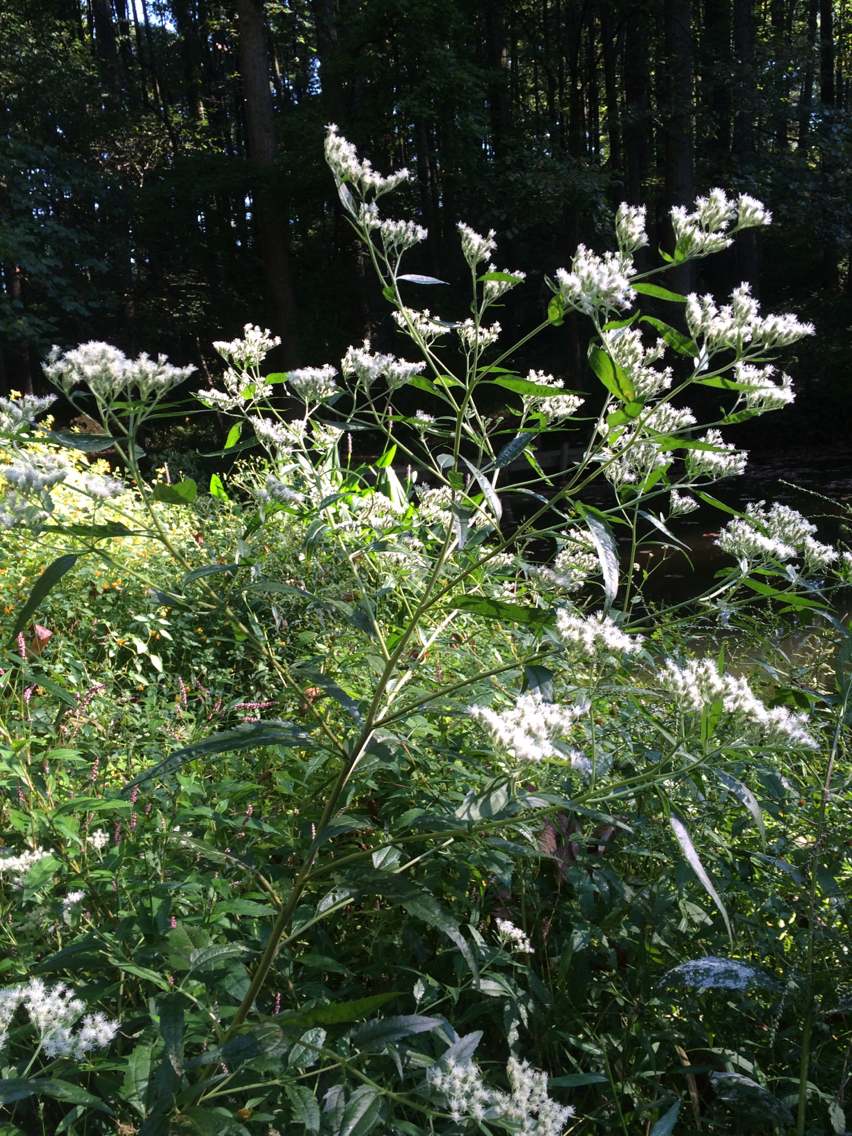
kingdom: Plantae
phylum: Tracheophyta
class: Magnoliopsida
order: Asterales
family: Asteraceae
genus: Eupatorium
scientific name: Eupatorium serotinum
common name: Late boneset
